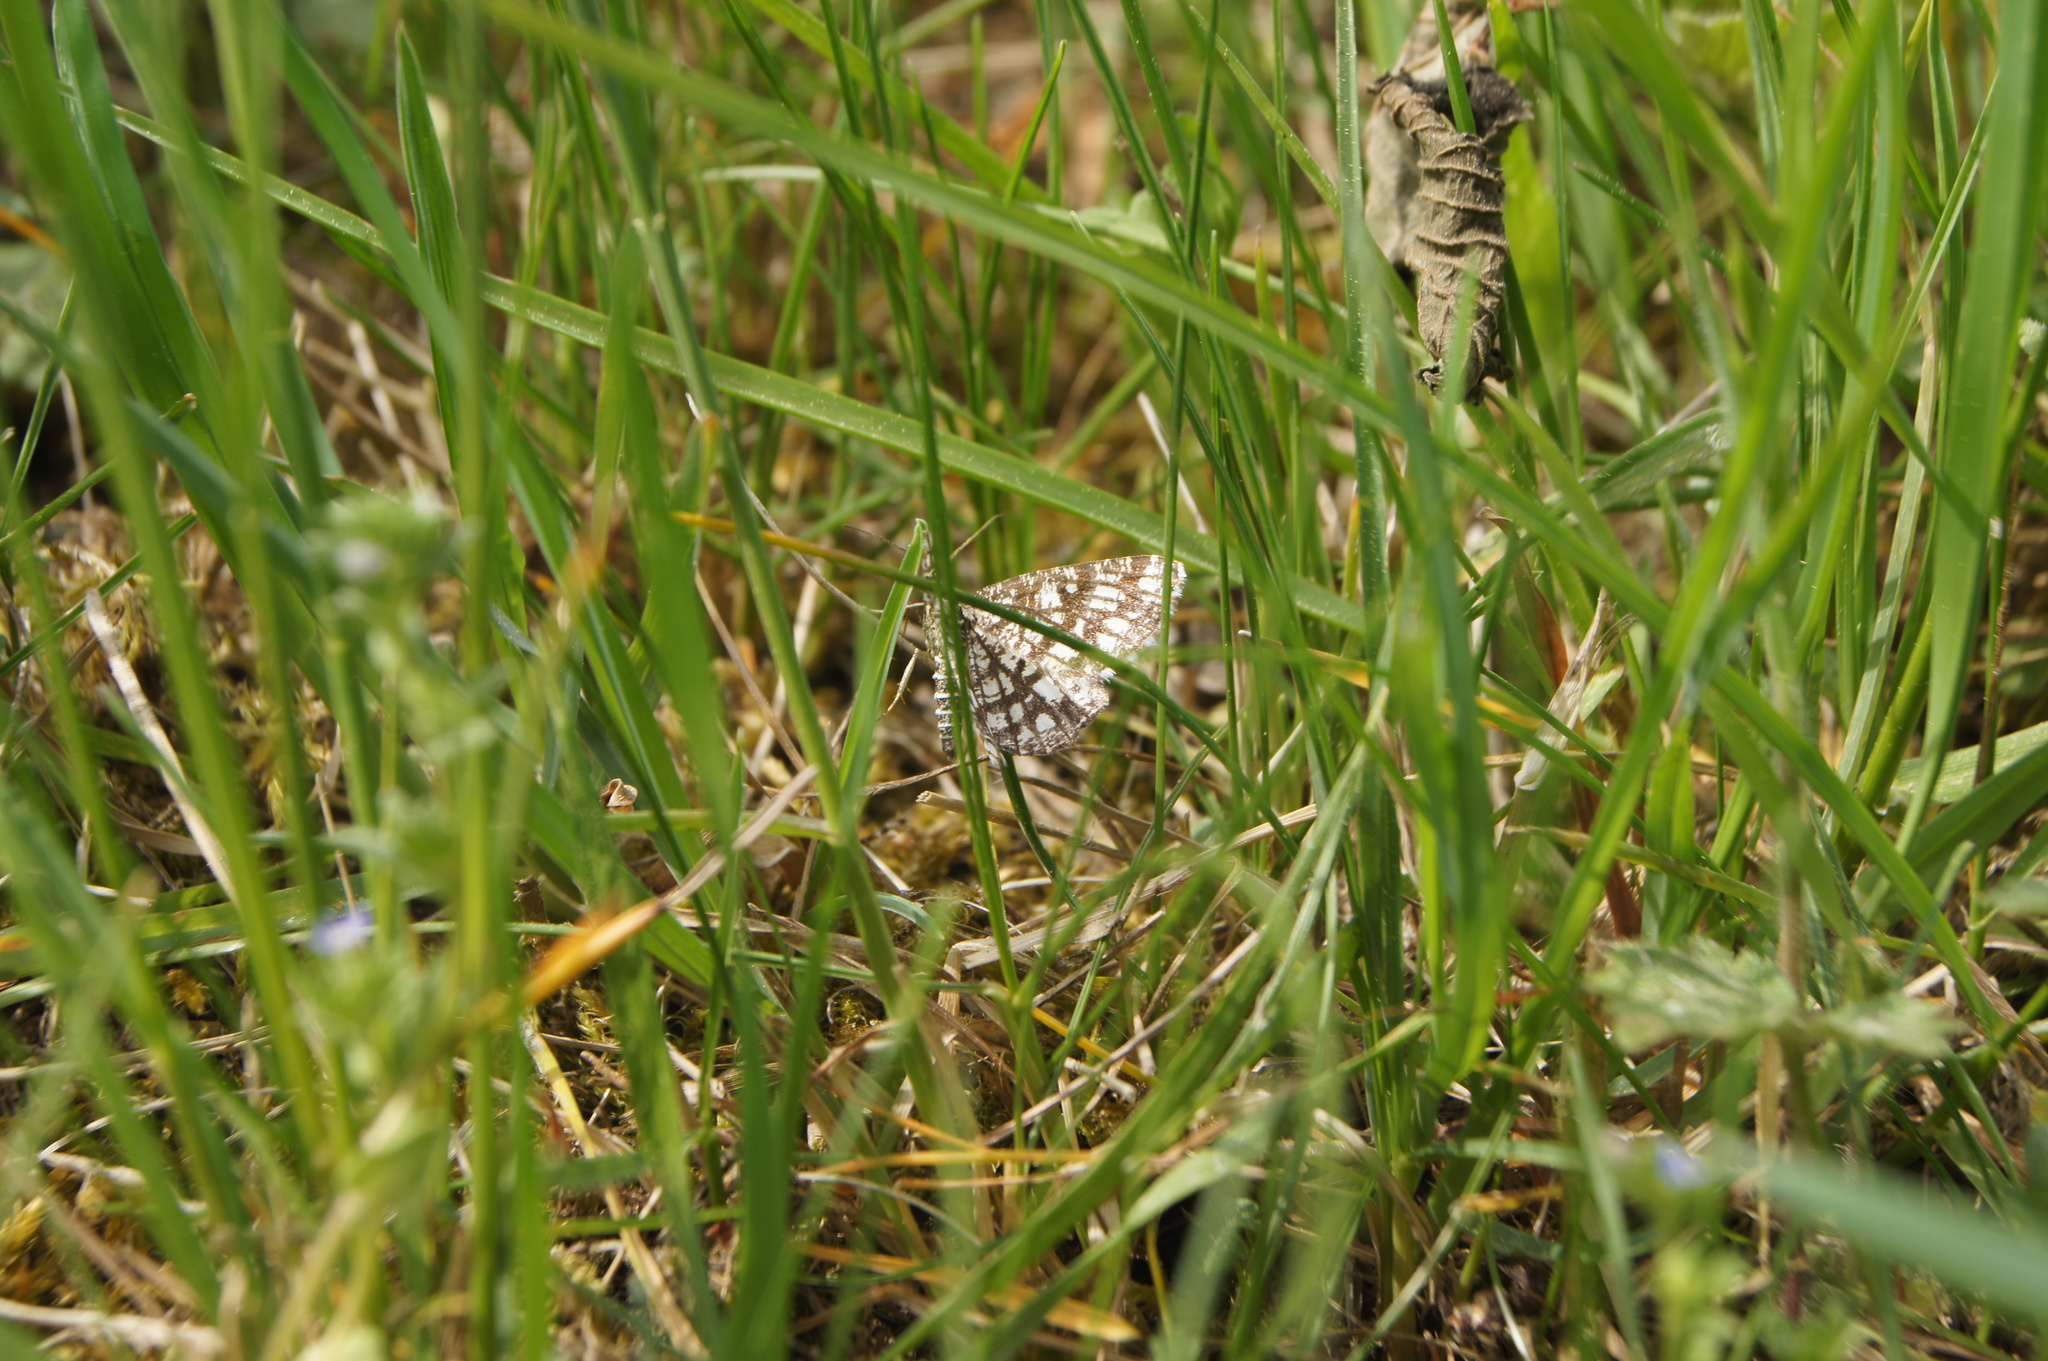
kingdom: Animalia
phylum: Arthropoda
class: Insecta
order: Lepidoptera
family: Geometridae
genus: Chiasmia
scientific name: Chiasmia clathrata
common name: Latticed heath
